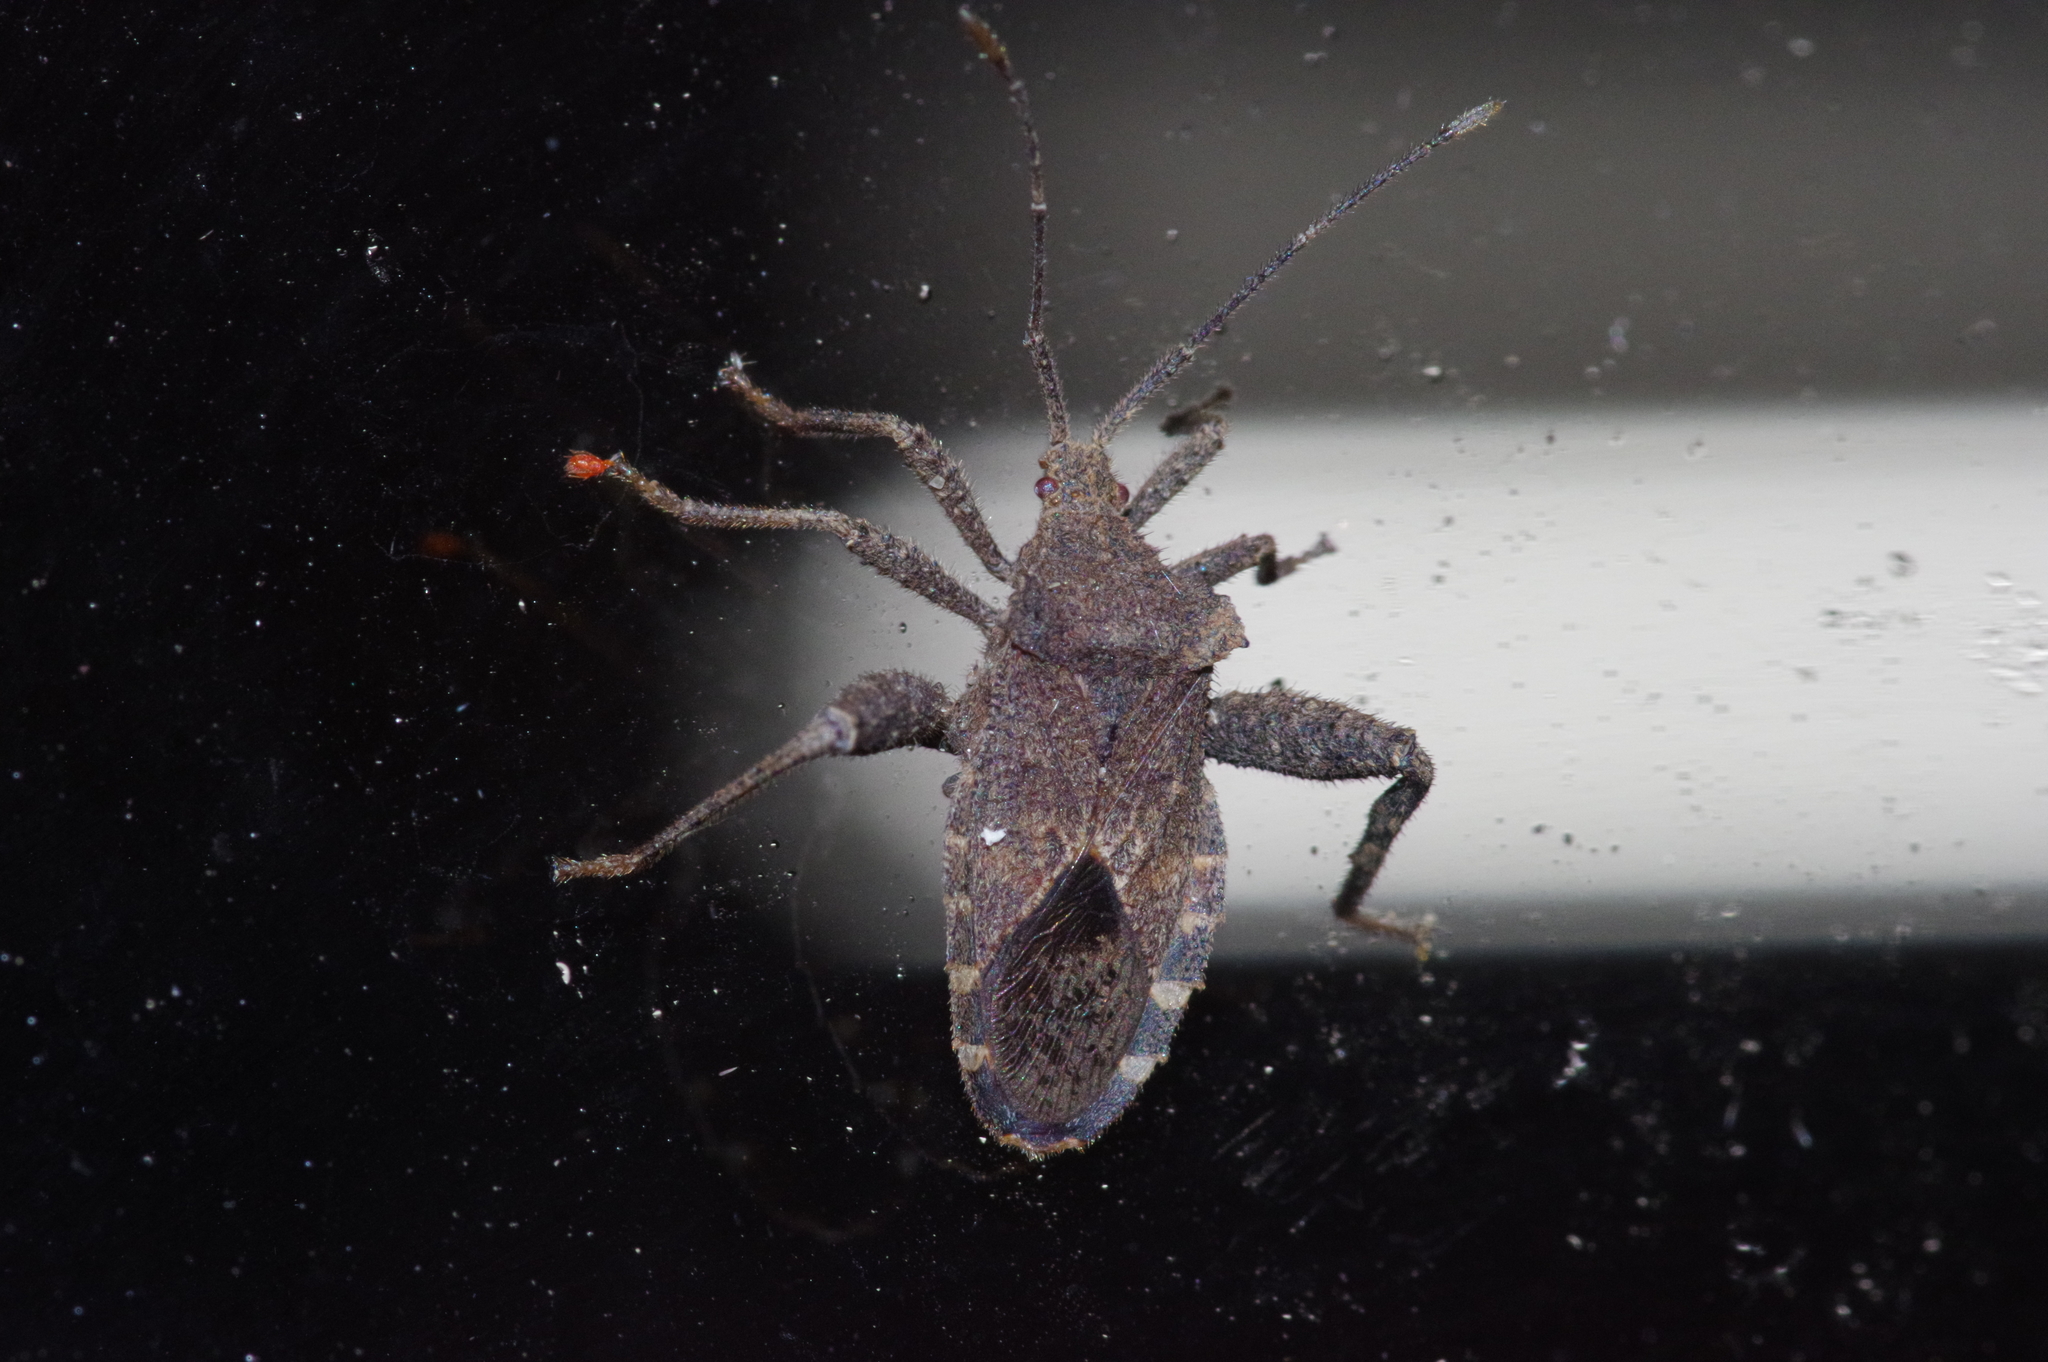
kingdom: Animalia
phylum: Arthropoda
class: Insecta
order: Hemiptera
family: Coreidae
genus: Acanthocoris
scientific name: Acanthocoris sordidus
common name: Winter cherry bug
